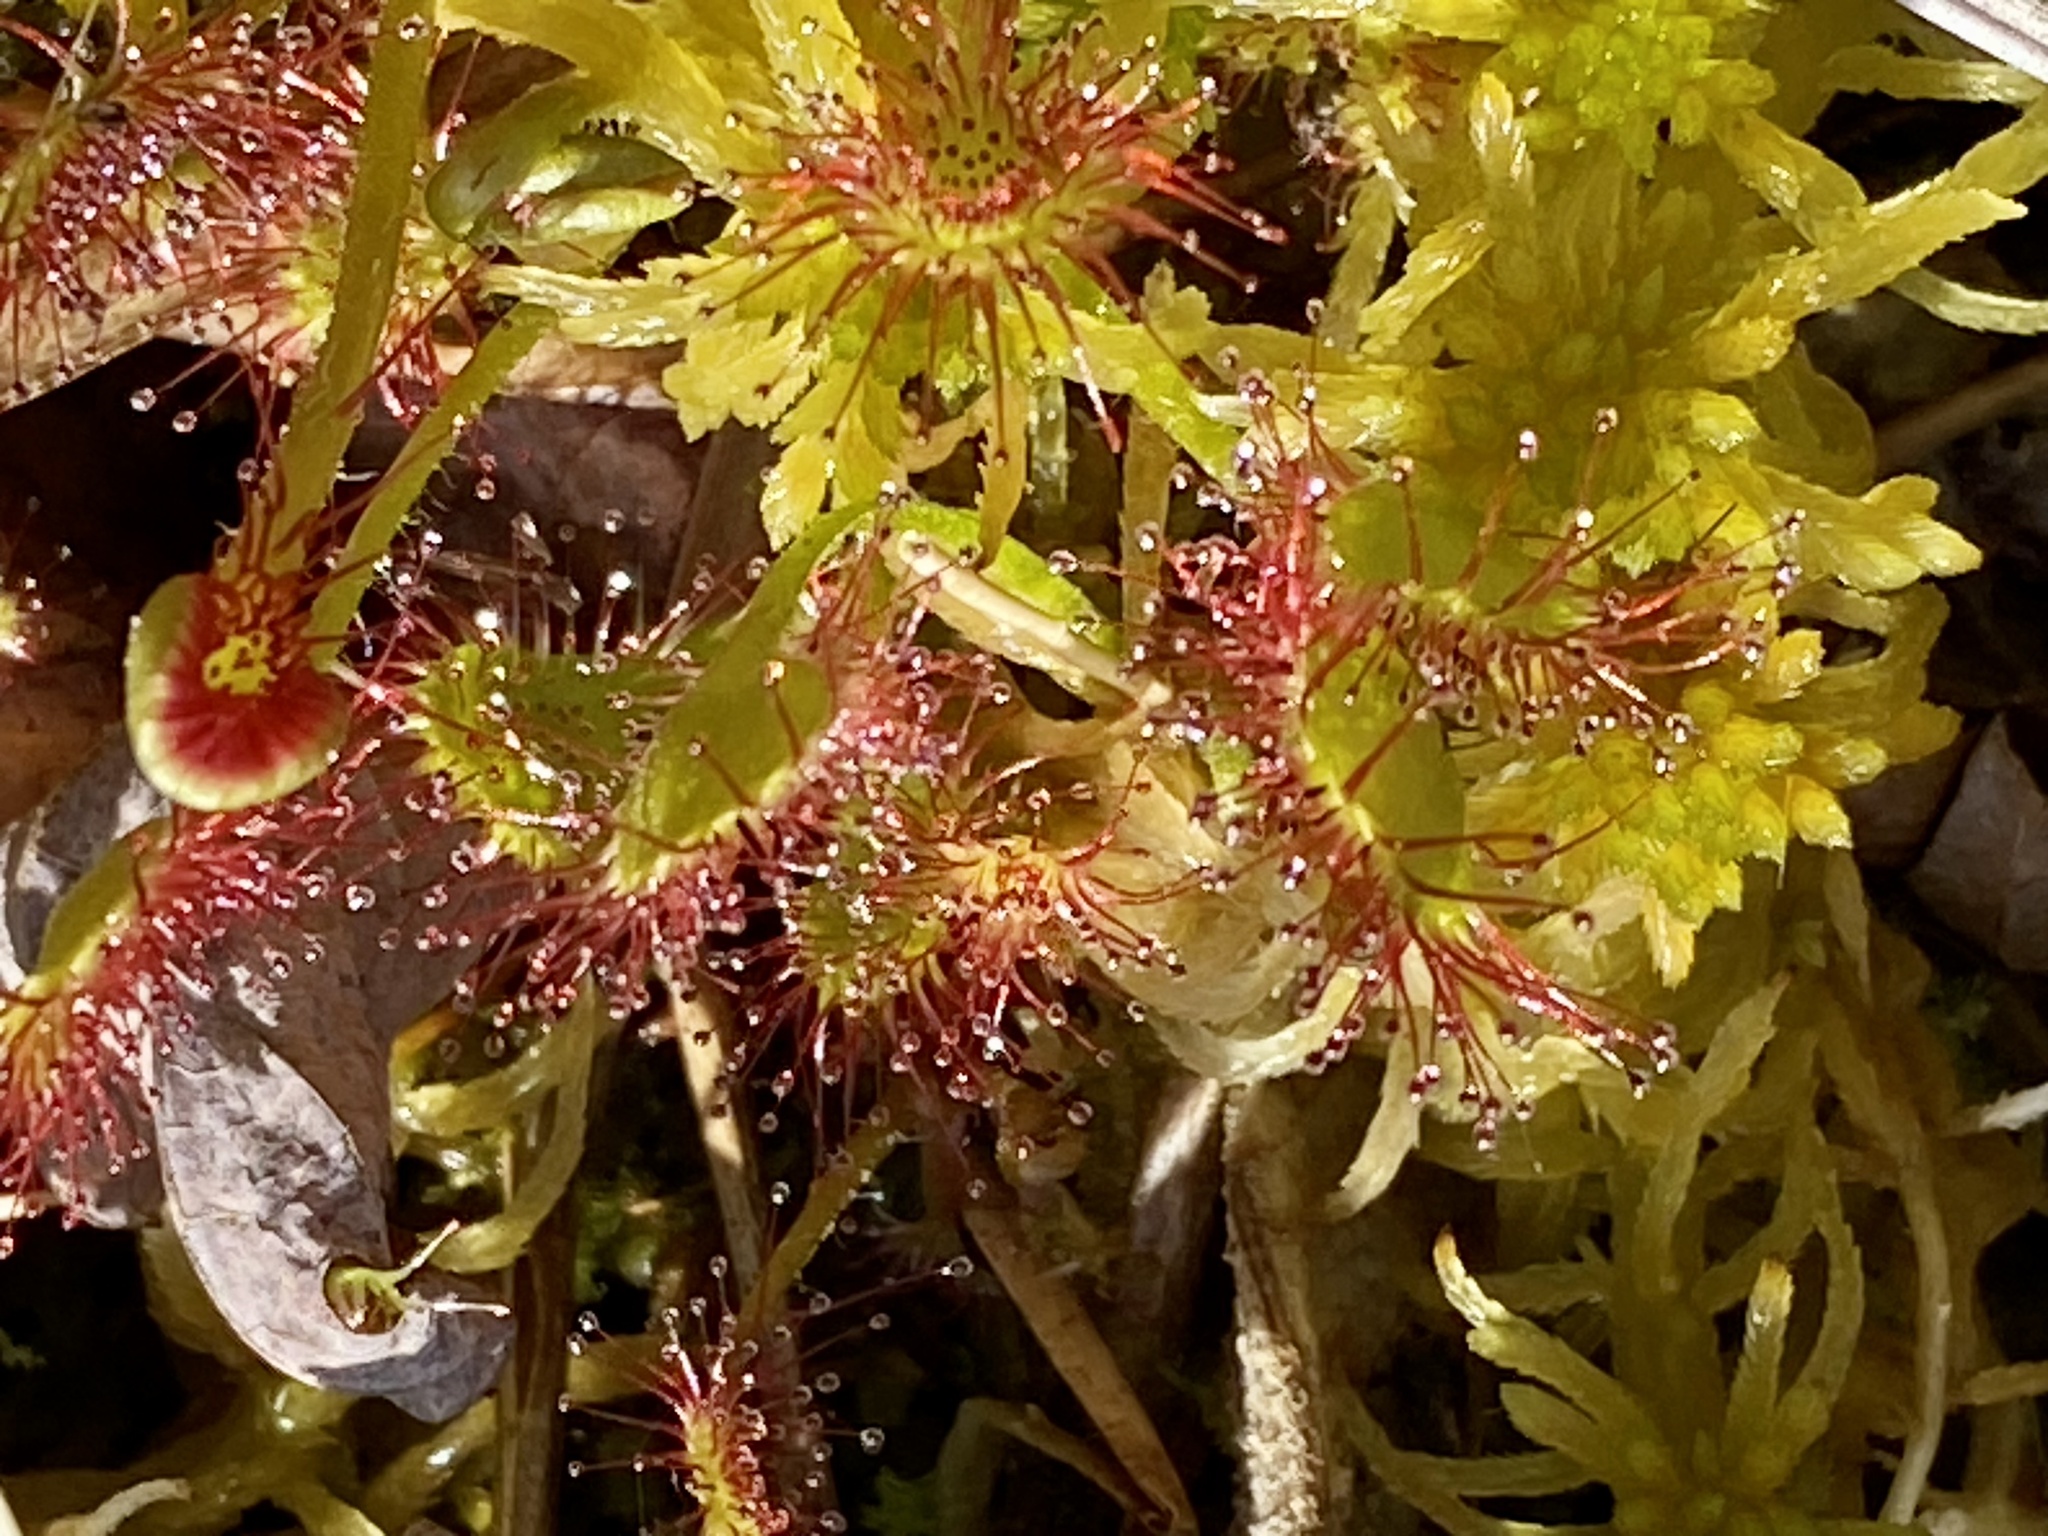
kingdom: Plantae
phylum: Tracheophyta
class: Magnoliopsida
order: Caryophyllales
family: Droseraceae
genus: Drosera
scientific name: Drosera rotundifolia
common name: Round-leaved sundew
